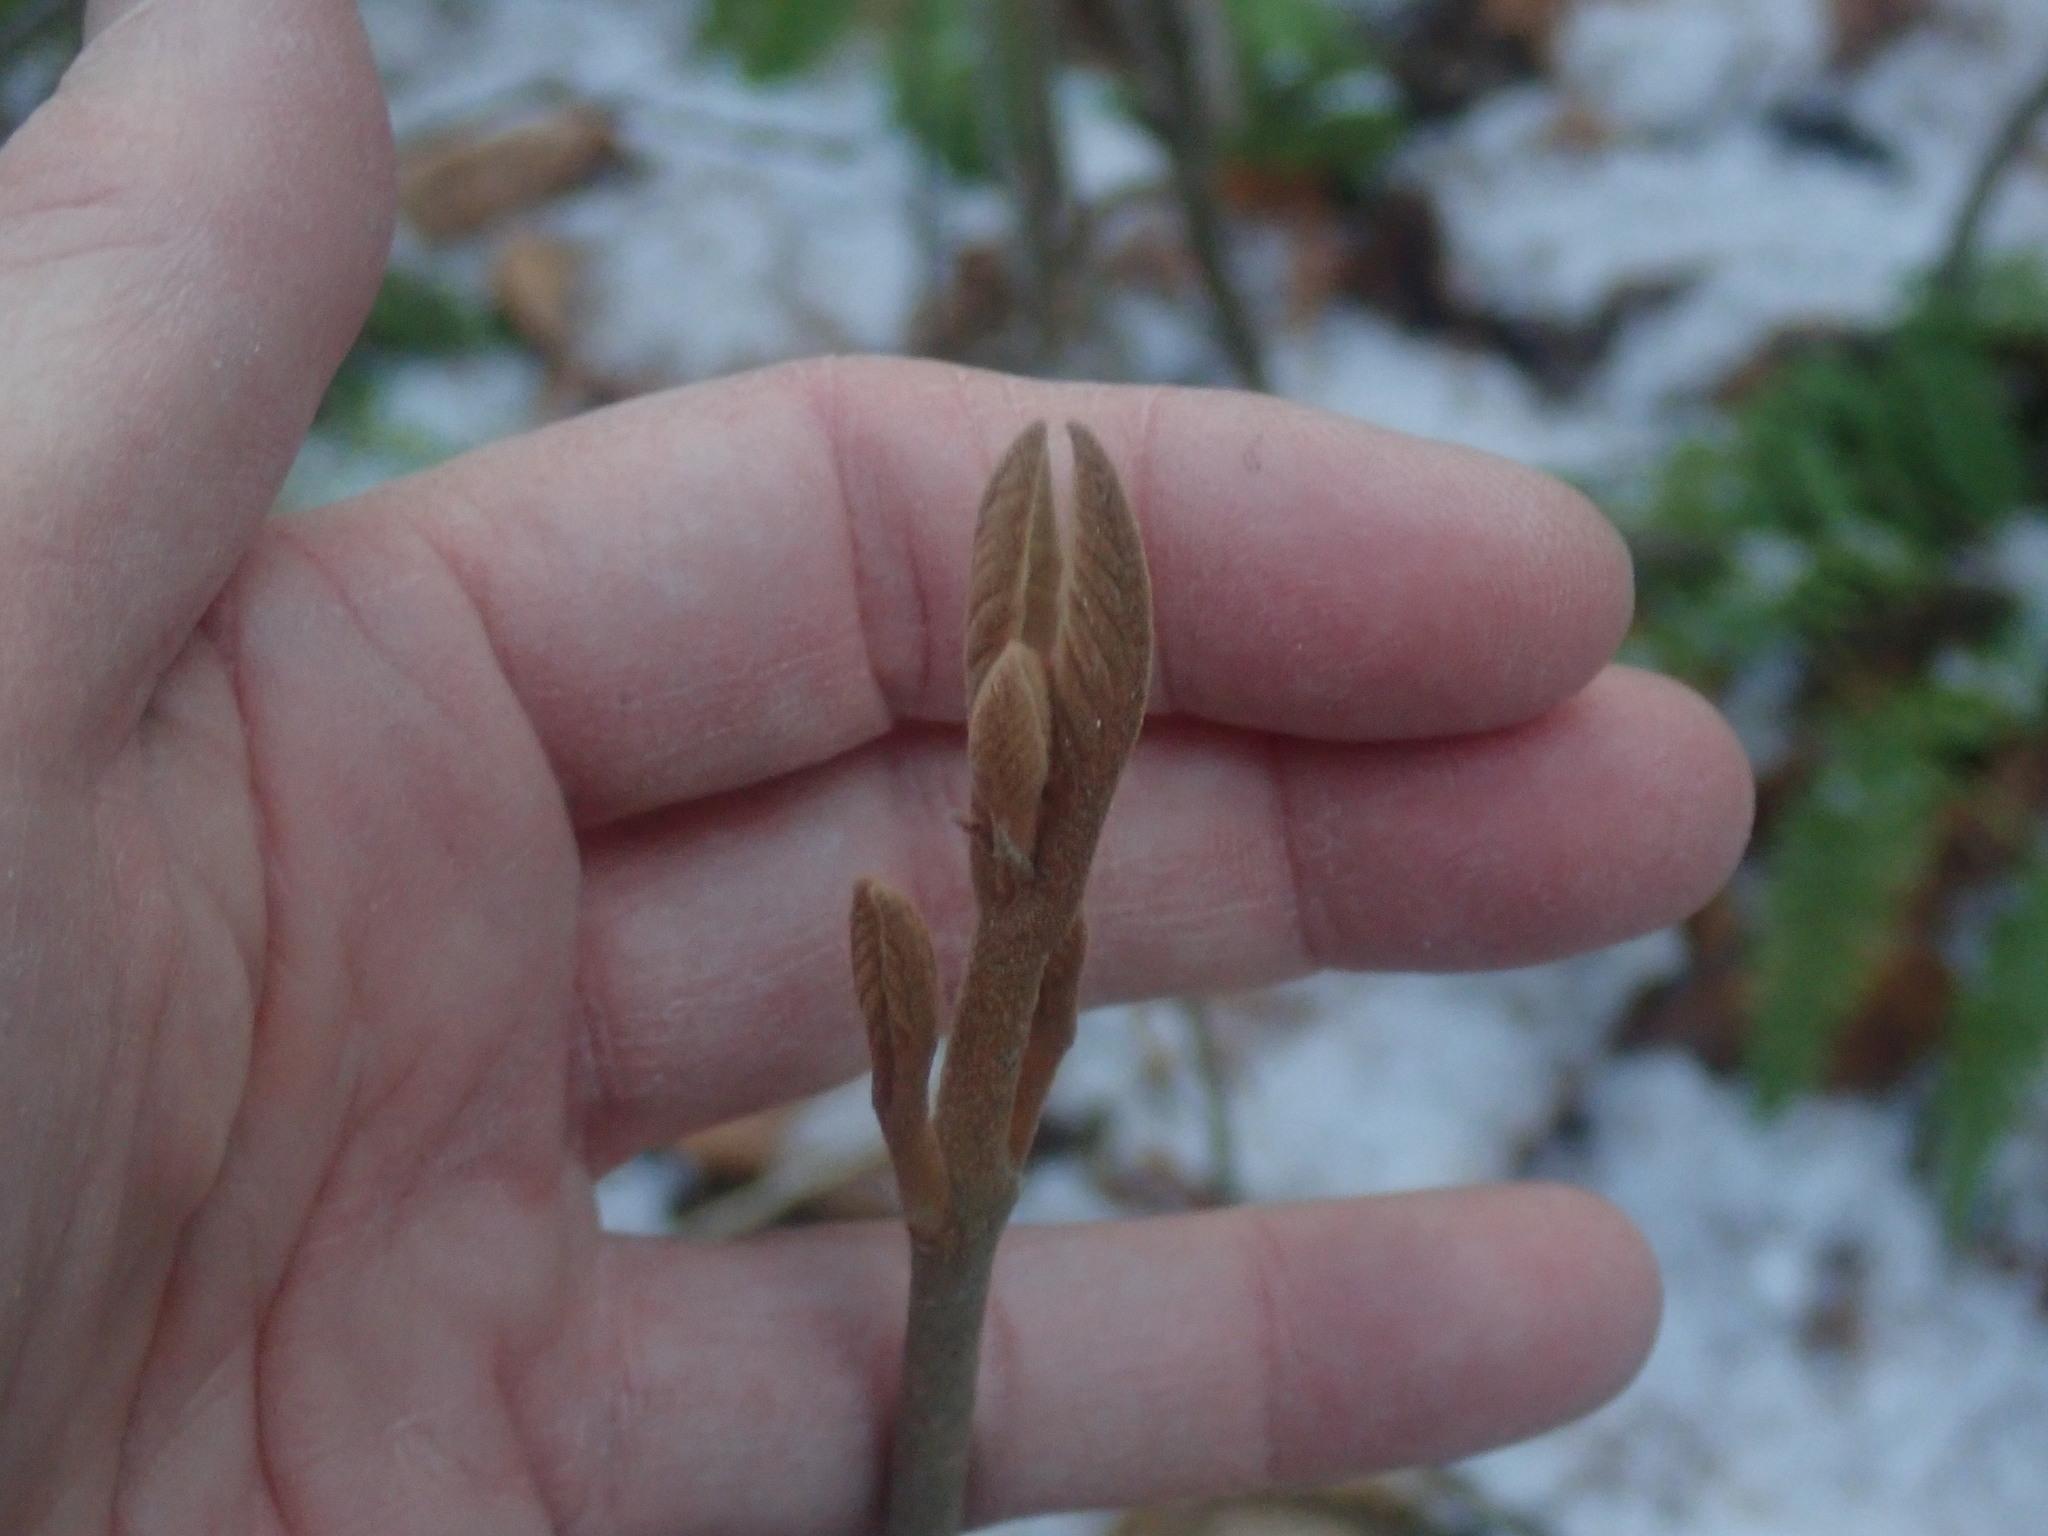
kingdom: Plantae
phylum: Tracheophyta
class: Magnoliopsida
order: Dipsacales
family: Viburnaceae
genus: Viburnum
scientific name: Viburnum lantanoides
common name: Hobblebush
